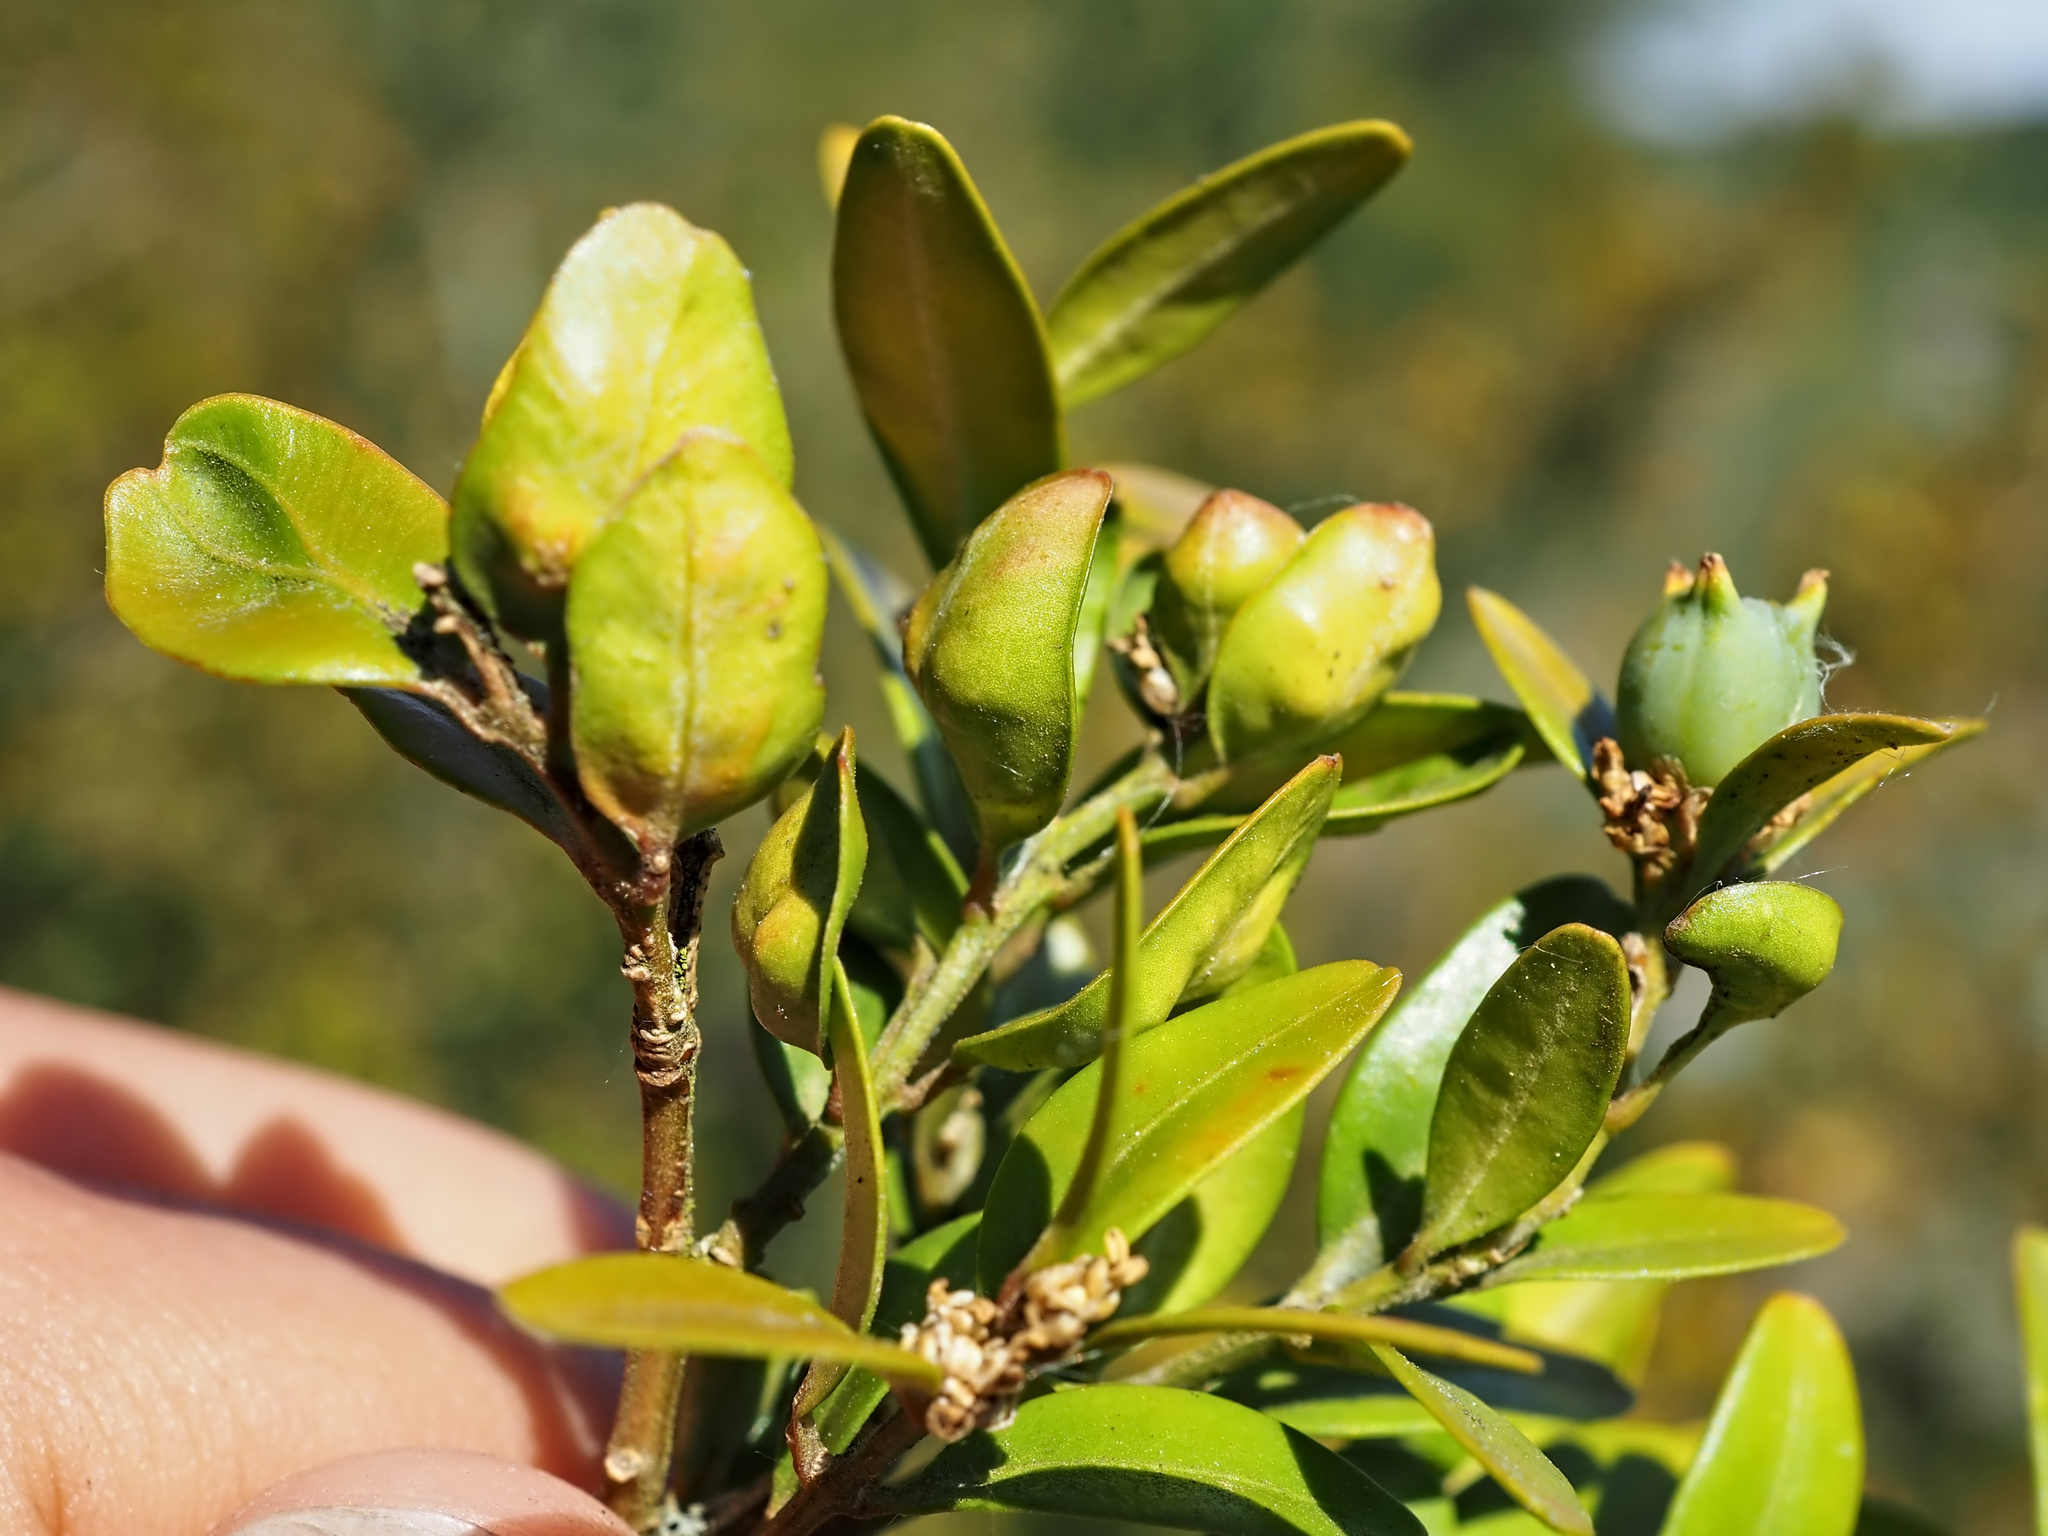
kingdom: Animalia
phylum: Arthropoda
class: Insecta
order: Hemiptera
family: Psyllidae
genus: Psylla
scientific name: Psylla buxi
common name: Boxwood psyllid
